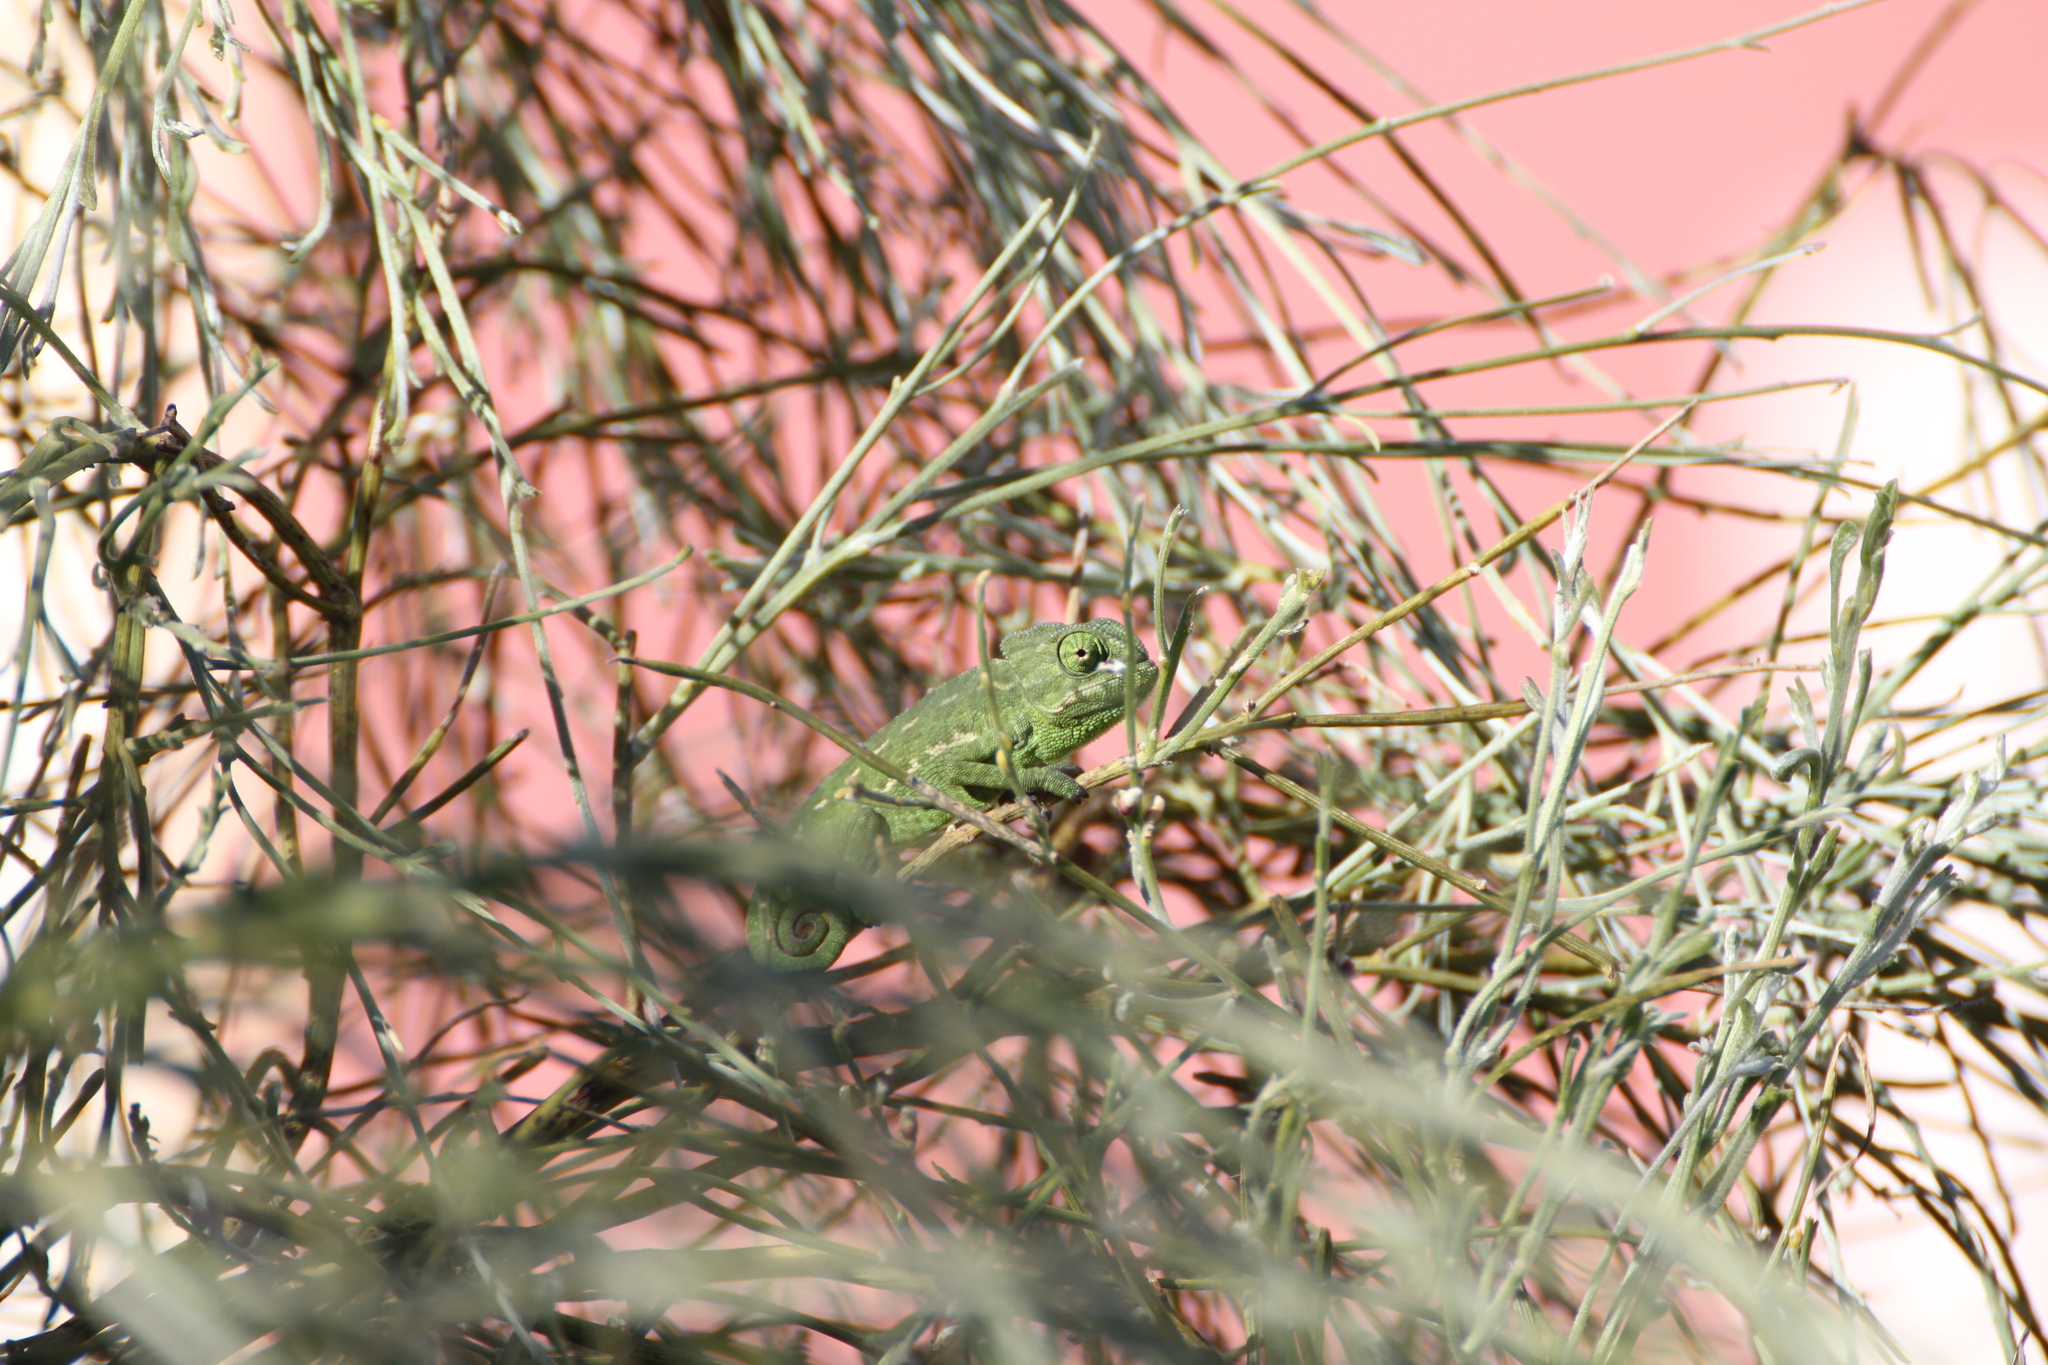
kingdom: Animalia
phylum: Chordata
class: Squamata
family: Chamaeleonidae
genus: Chamaeleo
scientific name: Chamaeleo chamaeleon
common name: Mediterranean chameleon
